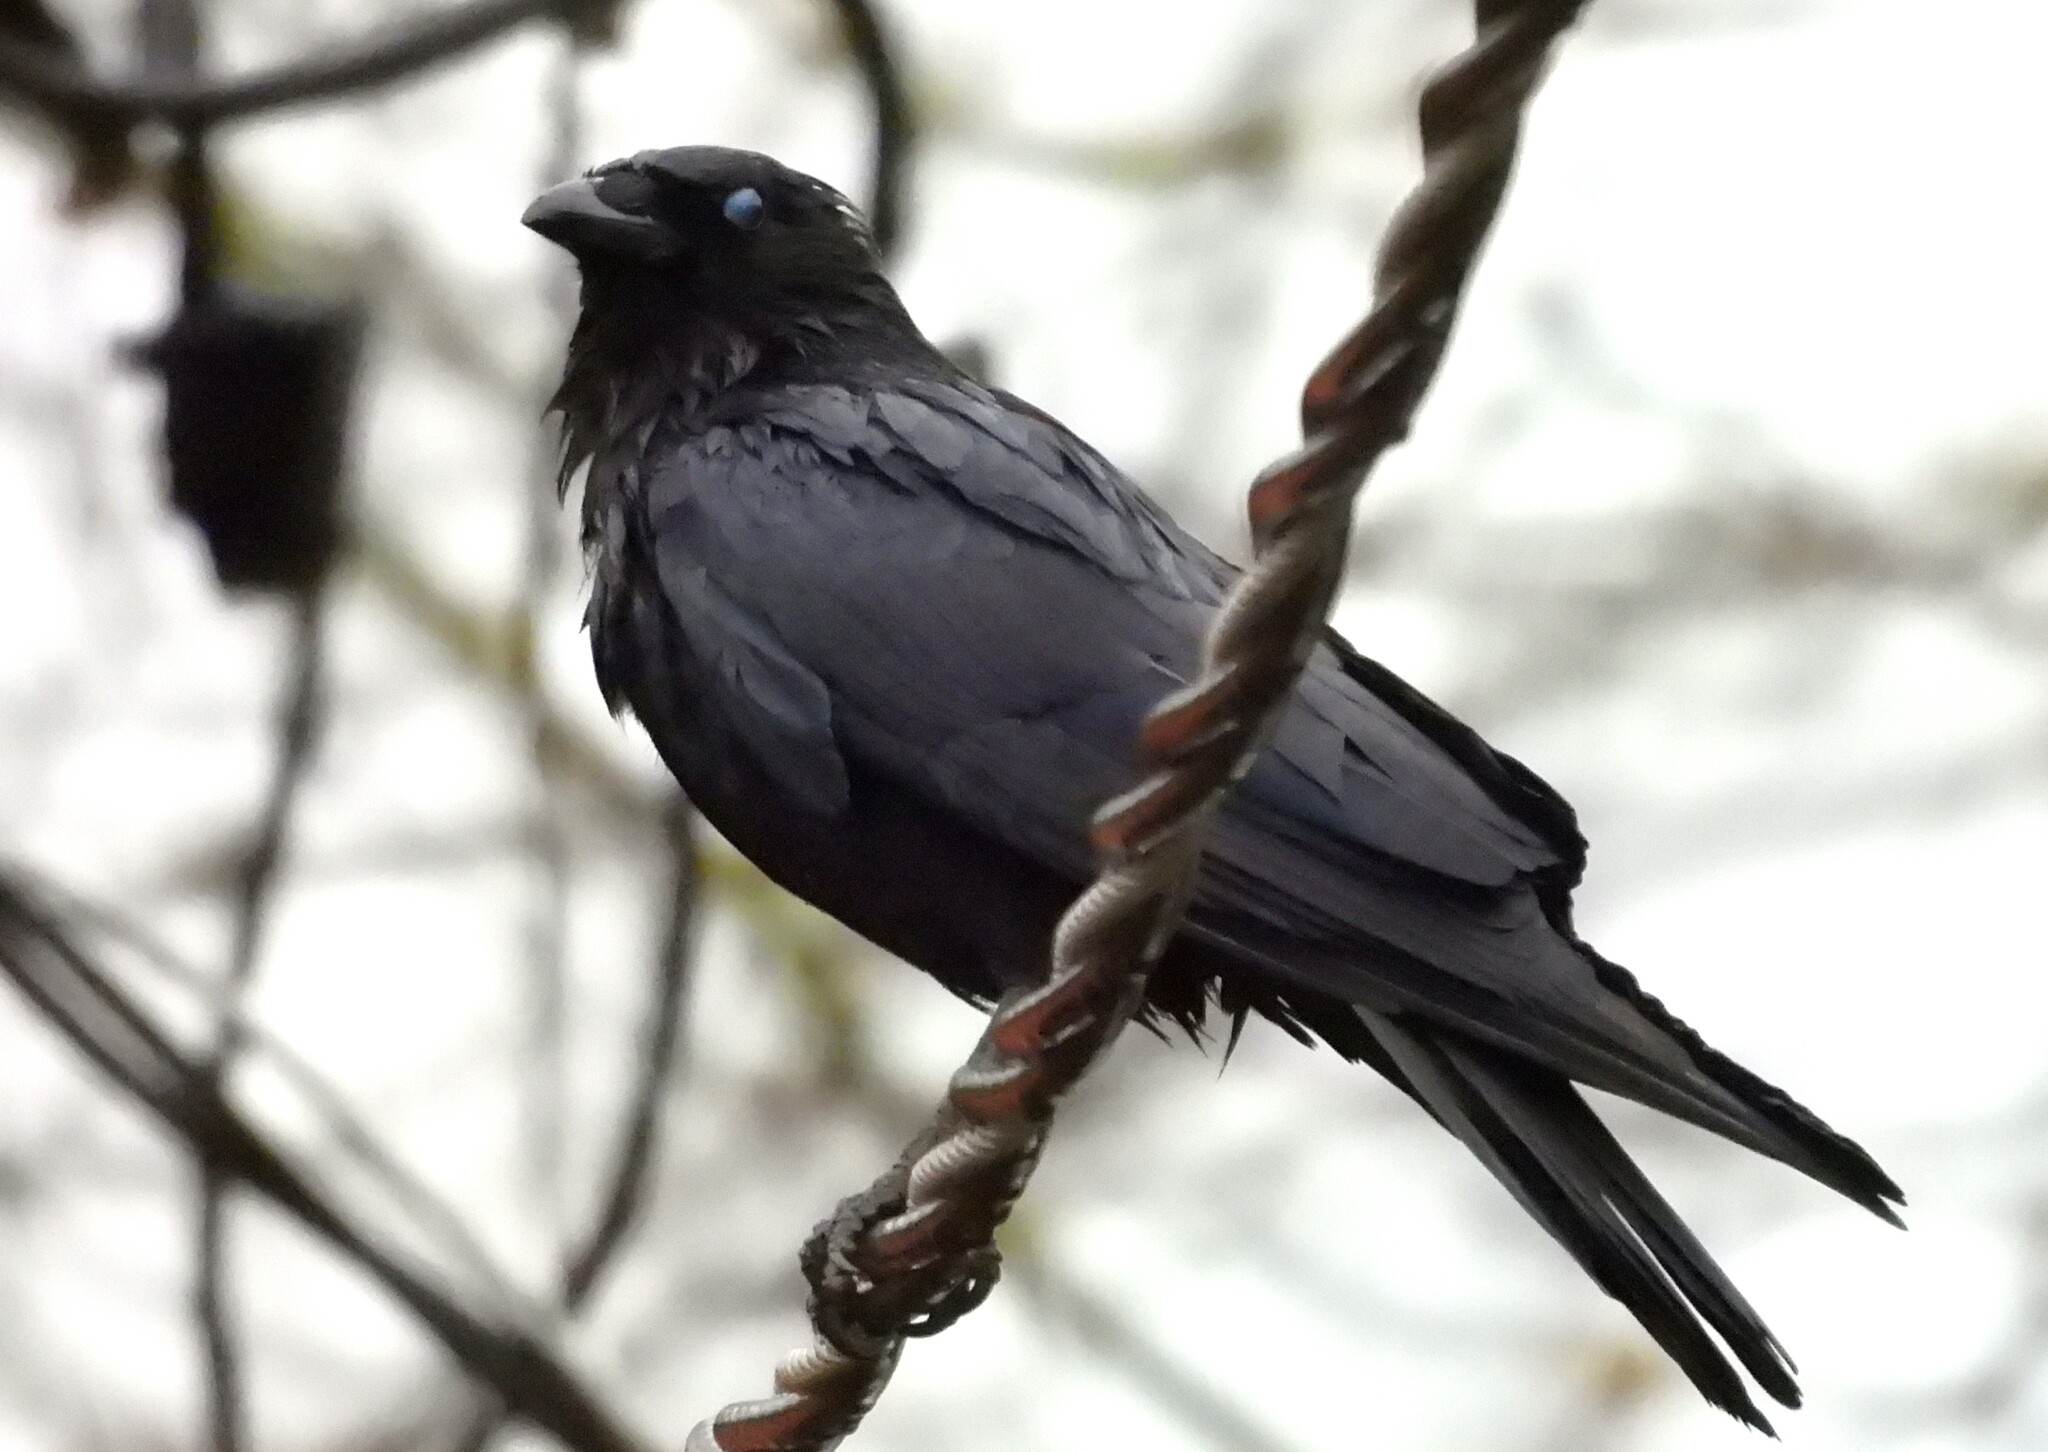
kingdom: Animalia
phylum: Chordata
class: Aves
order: Passeriformes
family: Corvidae
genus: Corvus
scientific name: Corvus brachyrhynchos
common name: American crow
